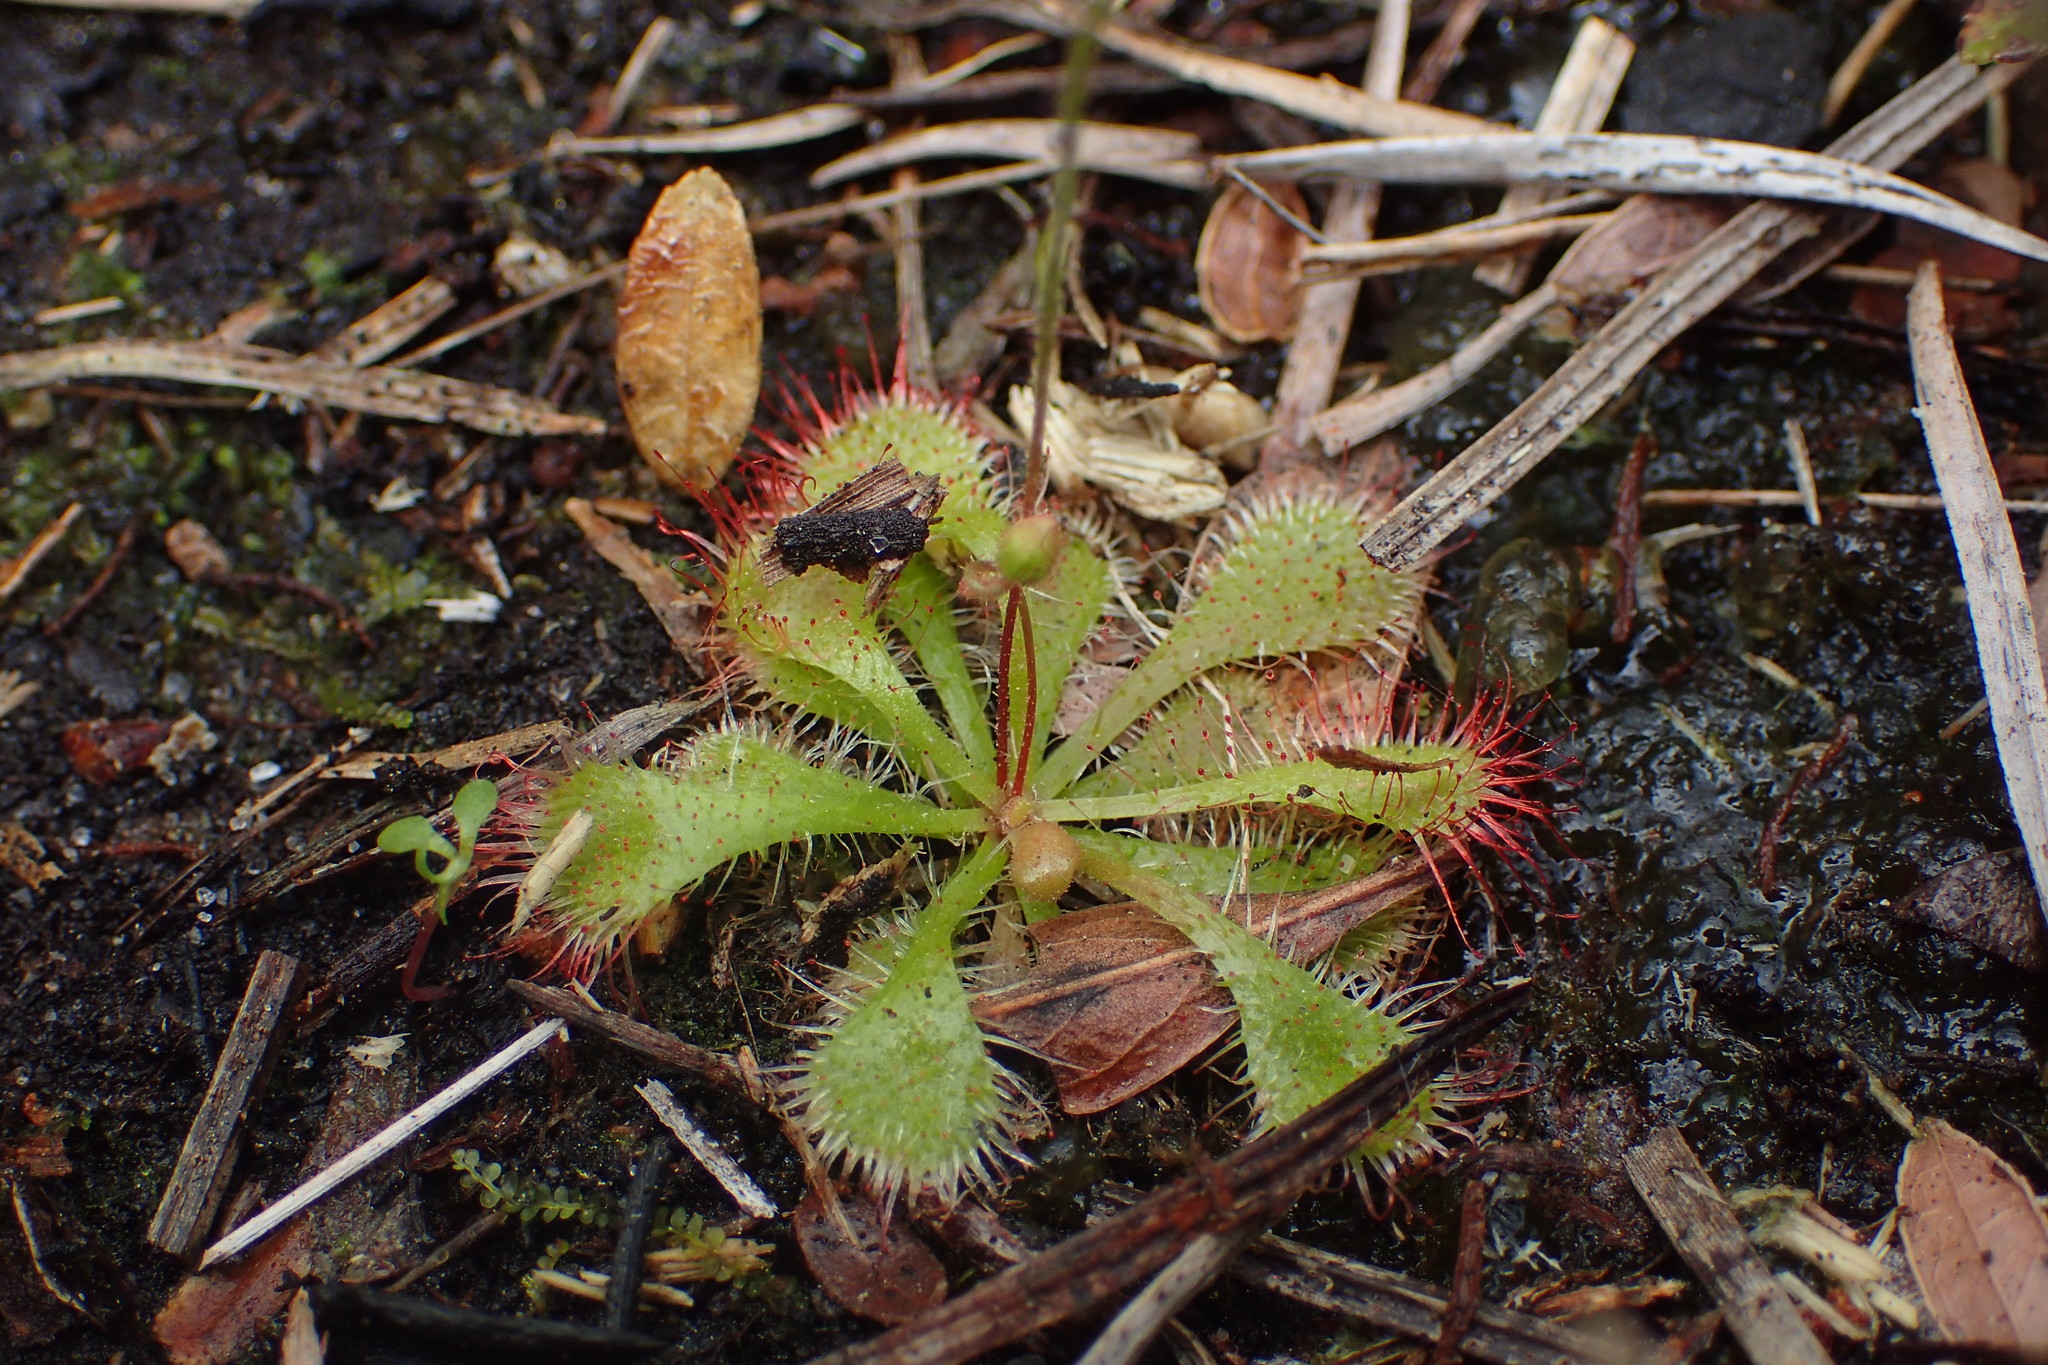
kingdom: Plantae
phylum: Tracheophyta
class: Magnoliopsida
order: Caryophyllales
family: Droseraceae
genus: Drosera
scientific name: Drosera brevifolia
